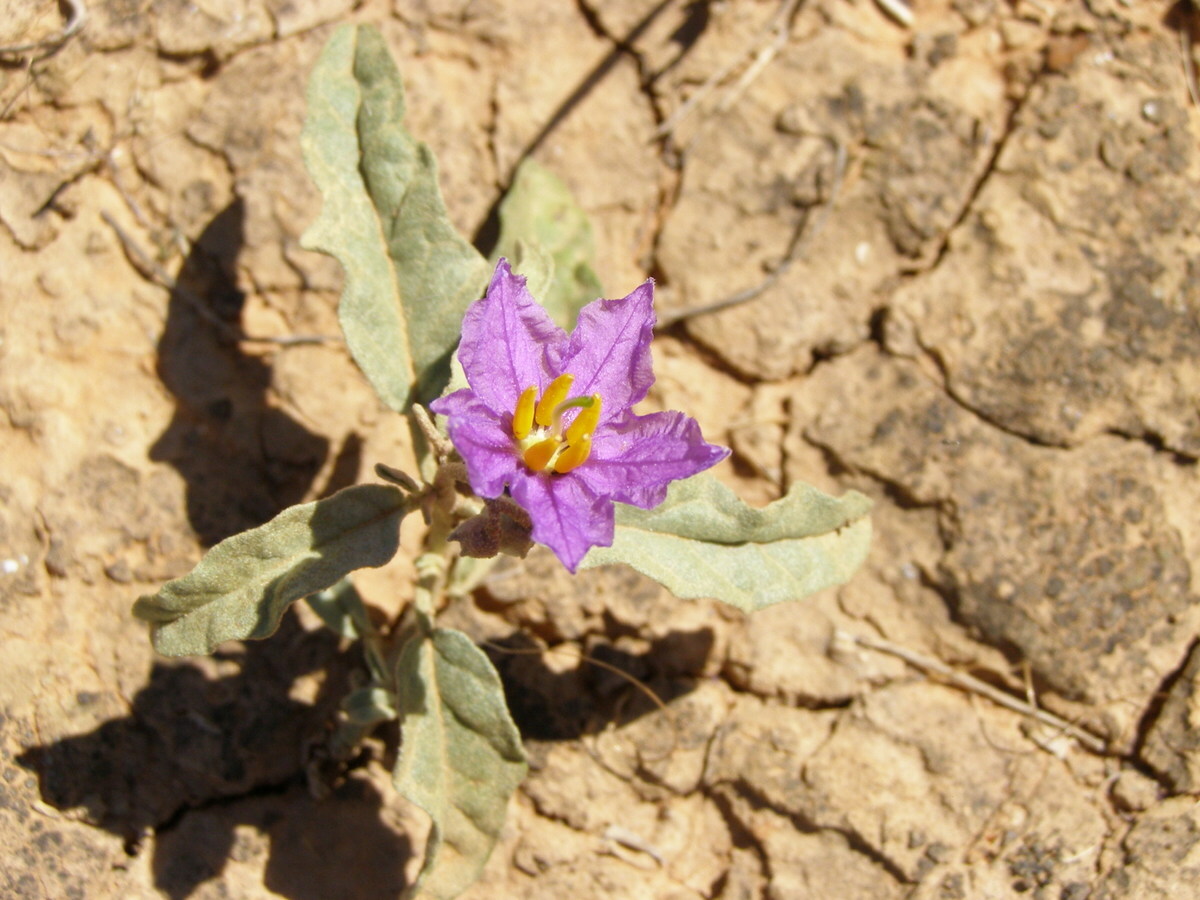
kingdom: Plantae
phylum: Tracheophyta
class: Magnoliopsida
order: Solanales
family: Solanaceae
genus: Solanum
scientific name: Solanum esuriale
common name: Wild tomato
